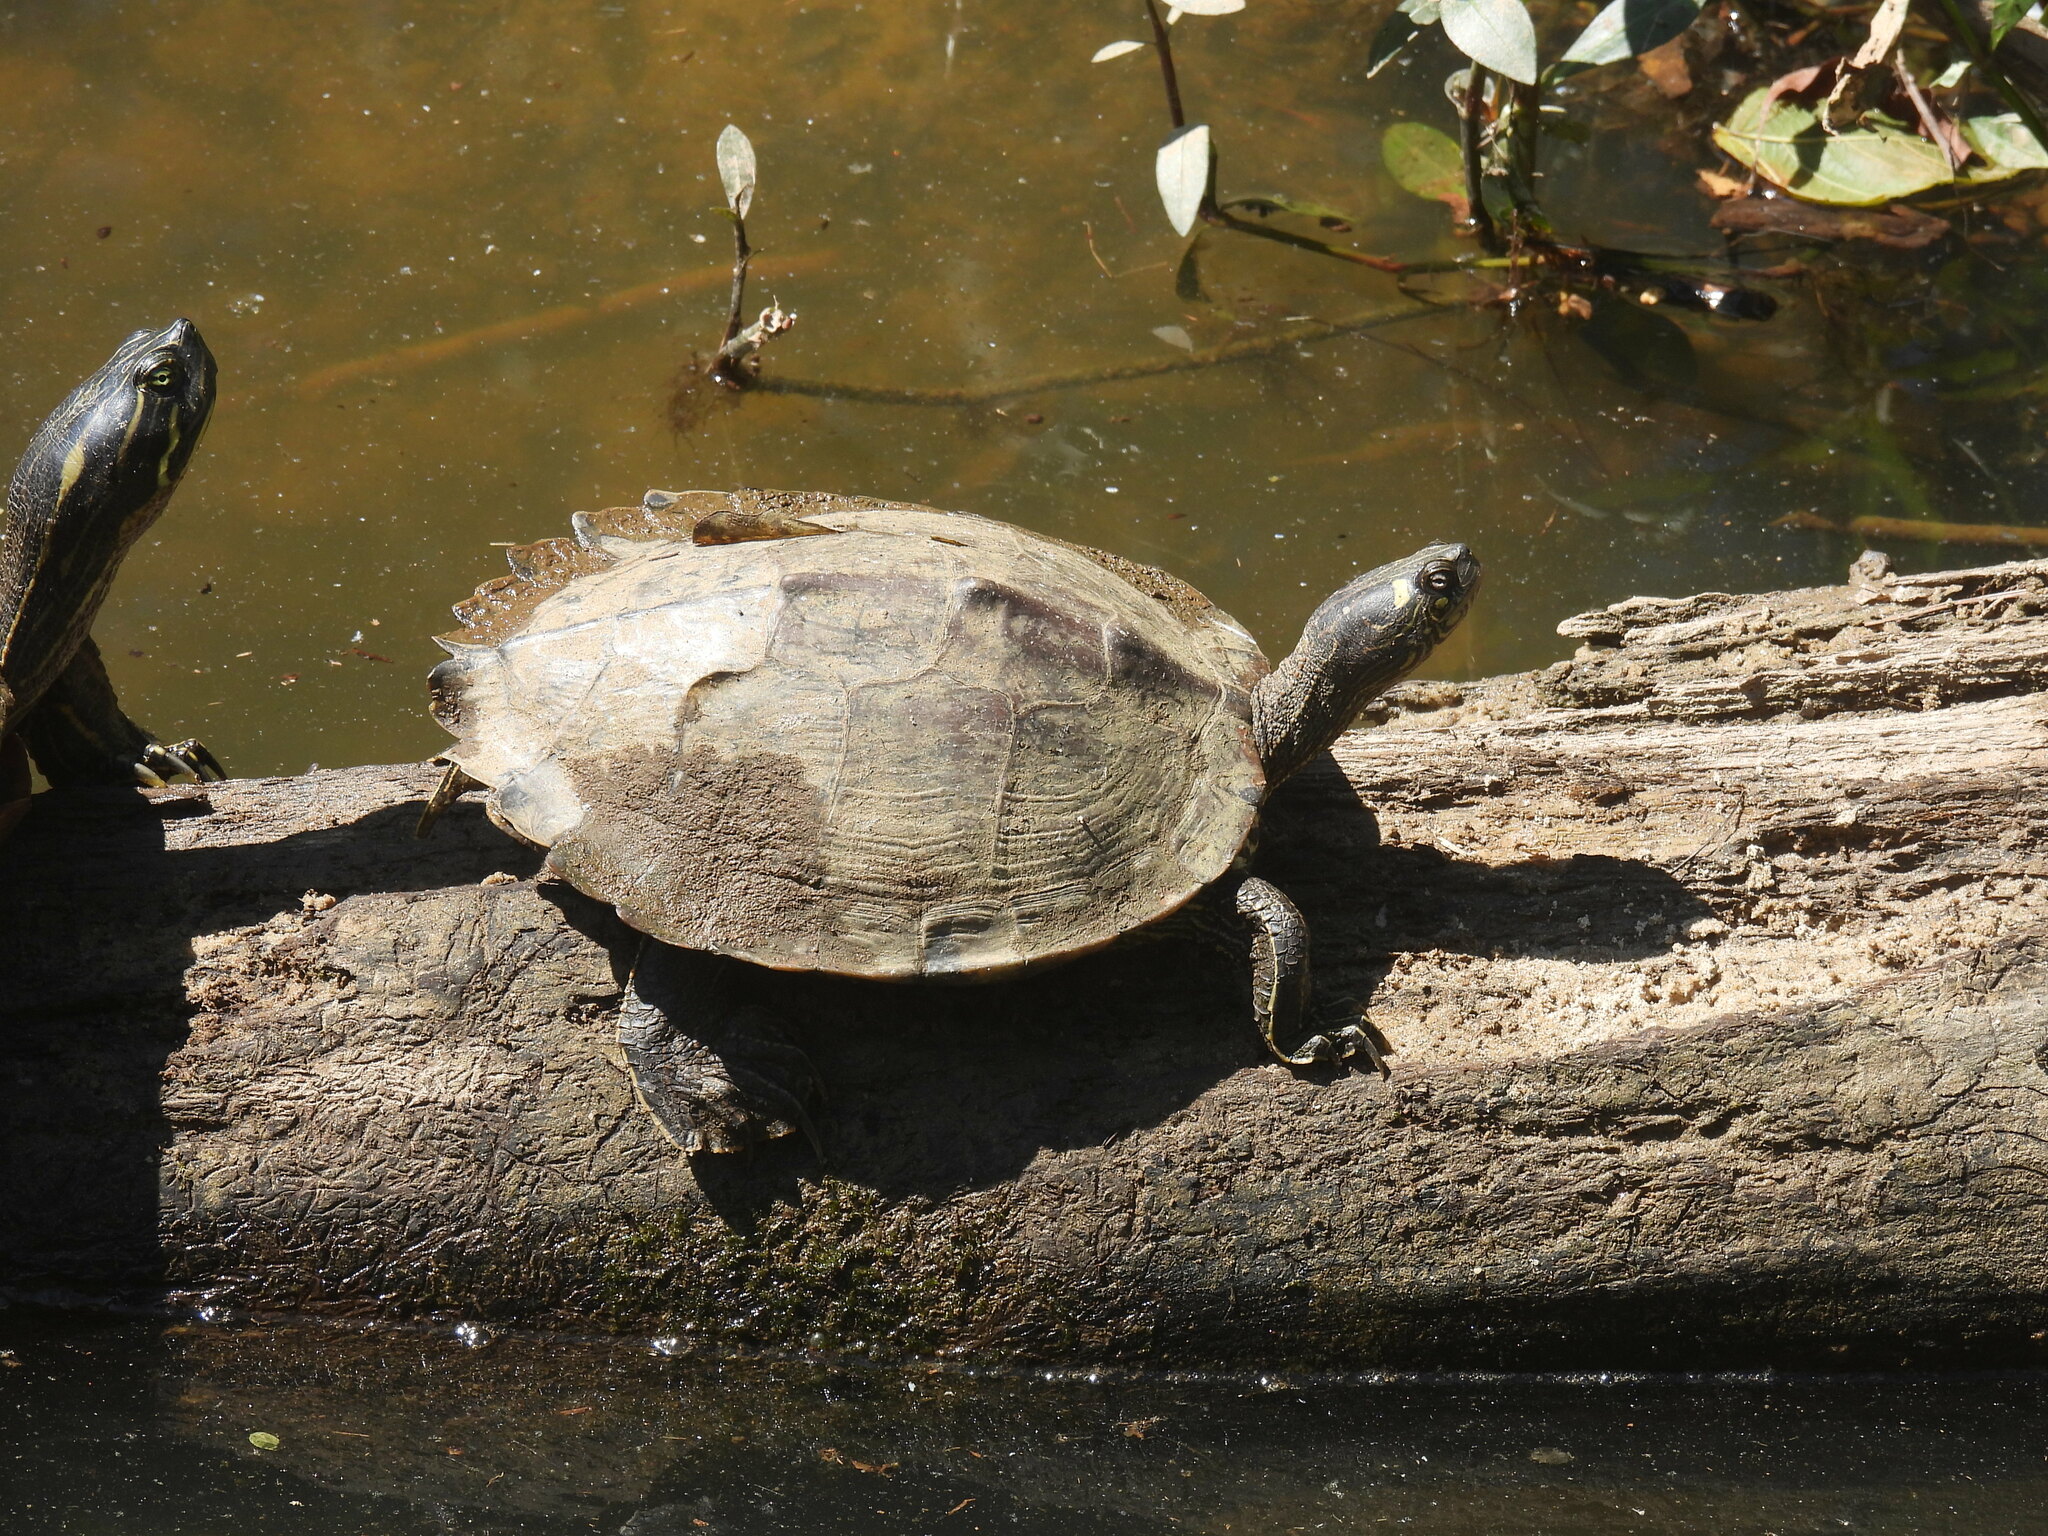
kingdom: Animalia
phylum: Chordata
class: Testudines
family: Emydidae
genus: Graptemys
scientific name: Graptemys ouachitensis
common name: Ouachita map turtle
